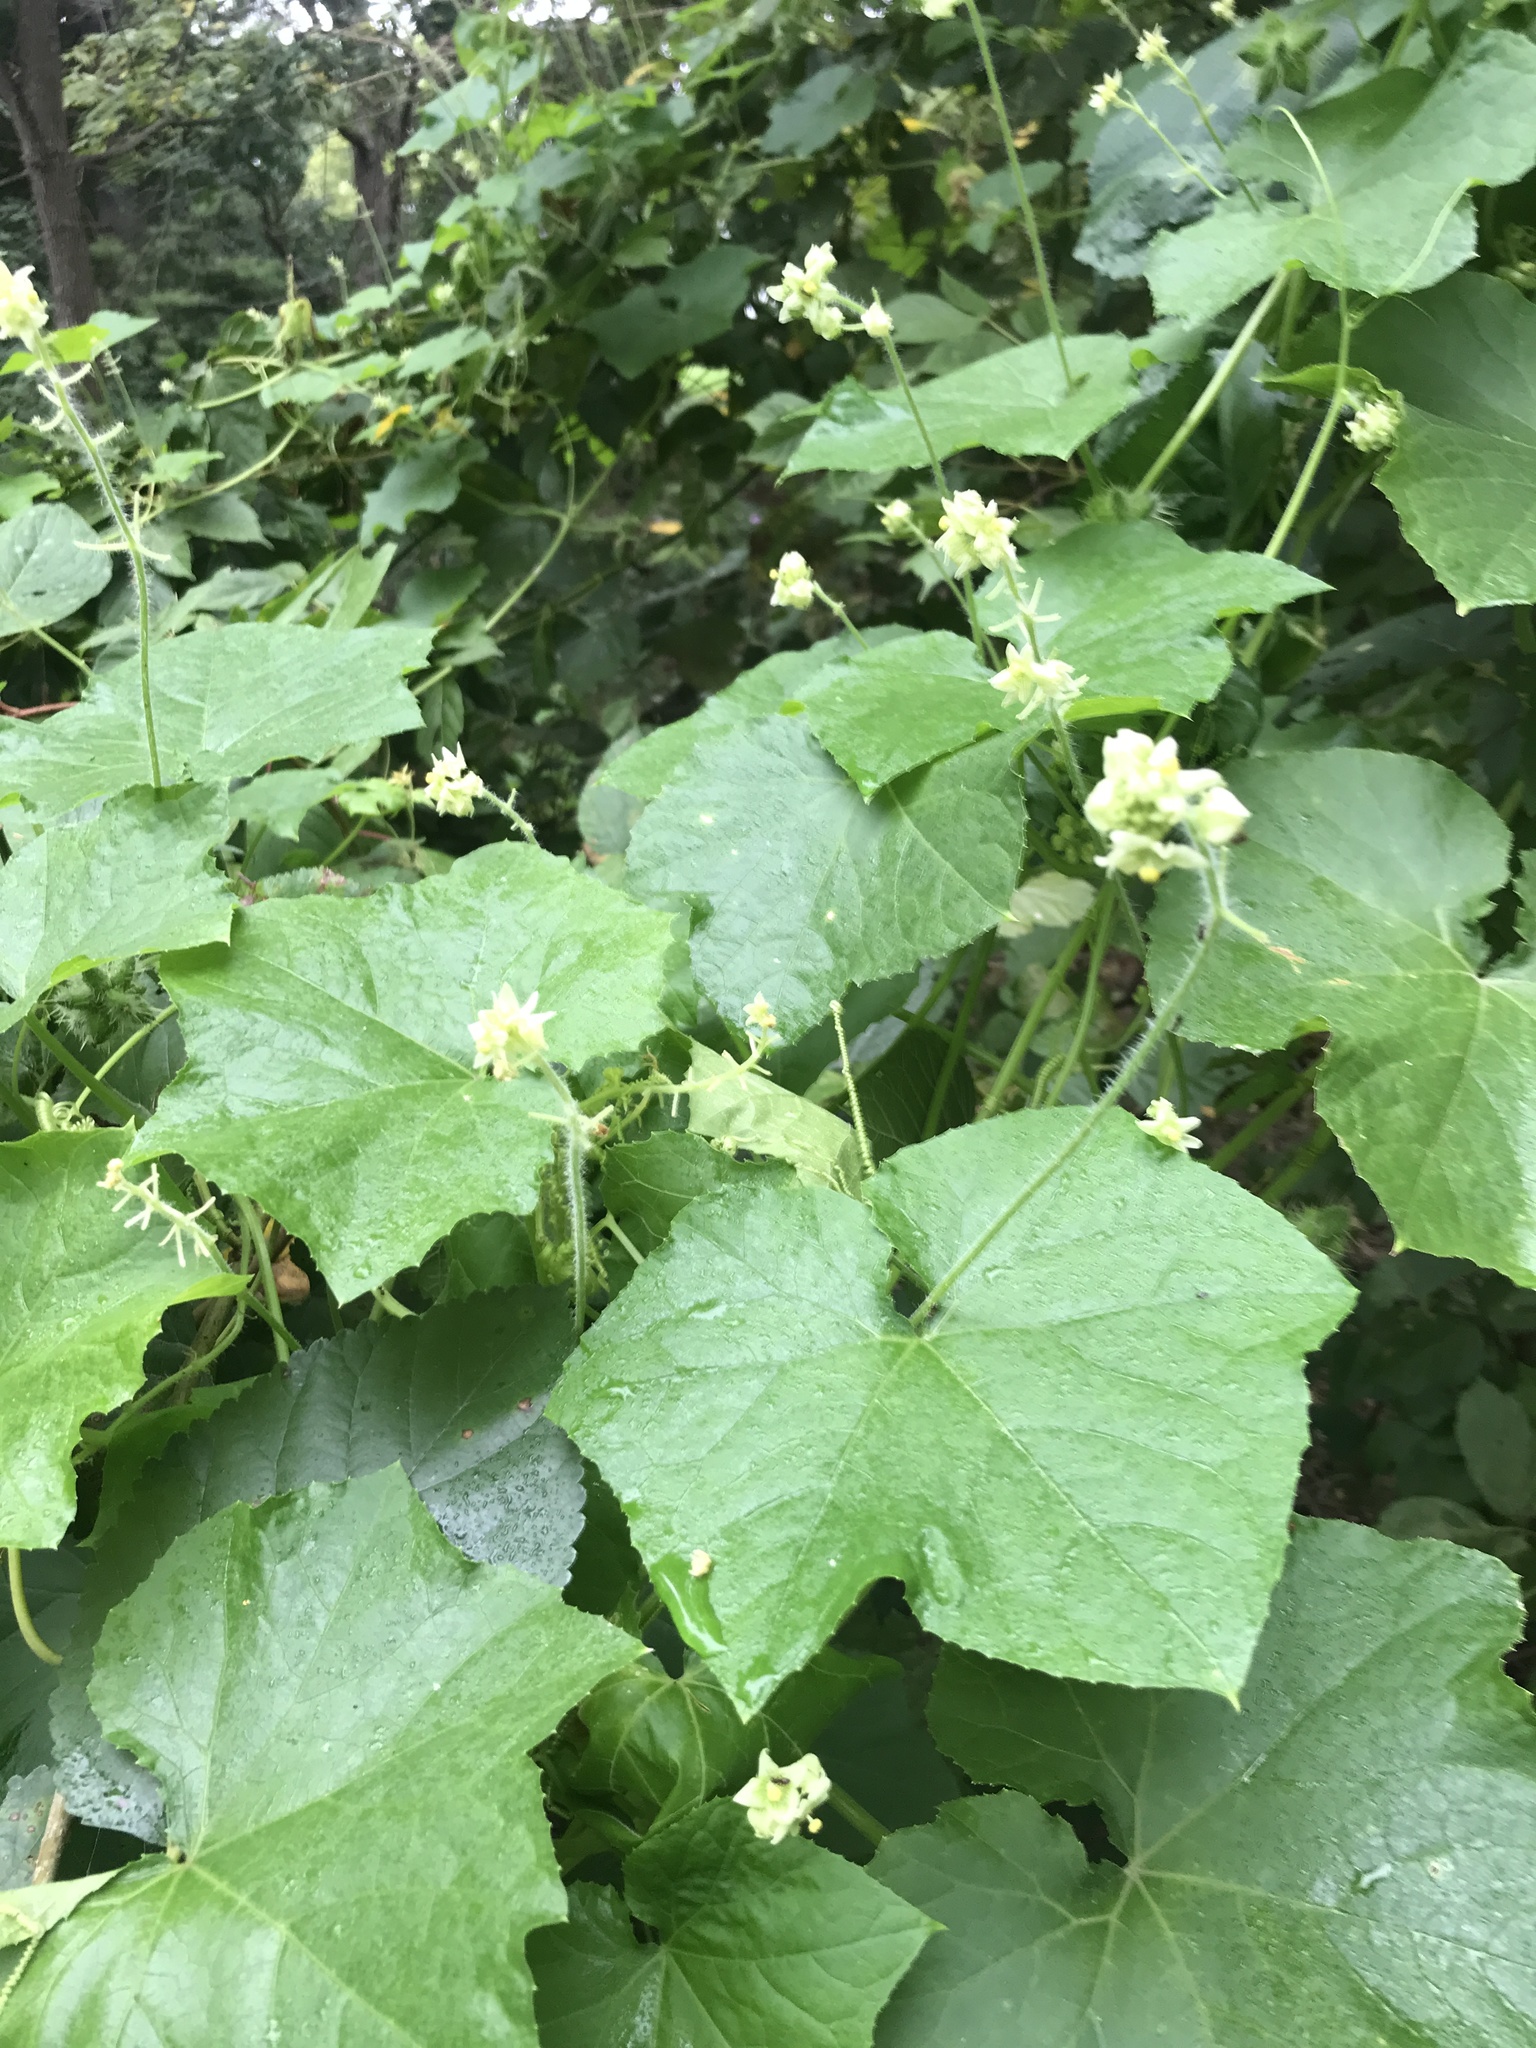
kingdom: Plantae
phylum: Tracheophyta
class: Magnoliopsida
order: Cucurbitales
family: Cucurbitaceae
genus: Sicyos
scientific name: Sicyos angulatus
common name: Angled burr cucumber
